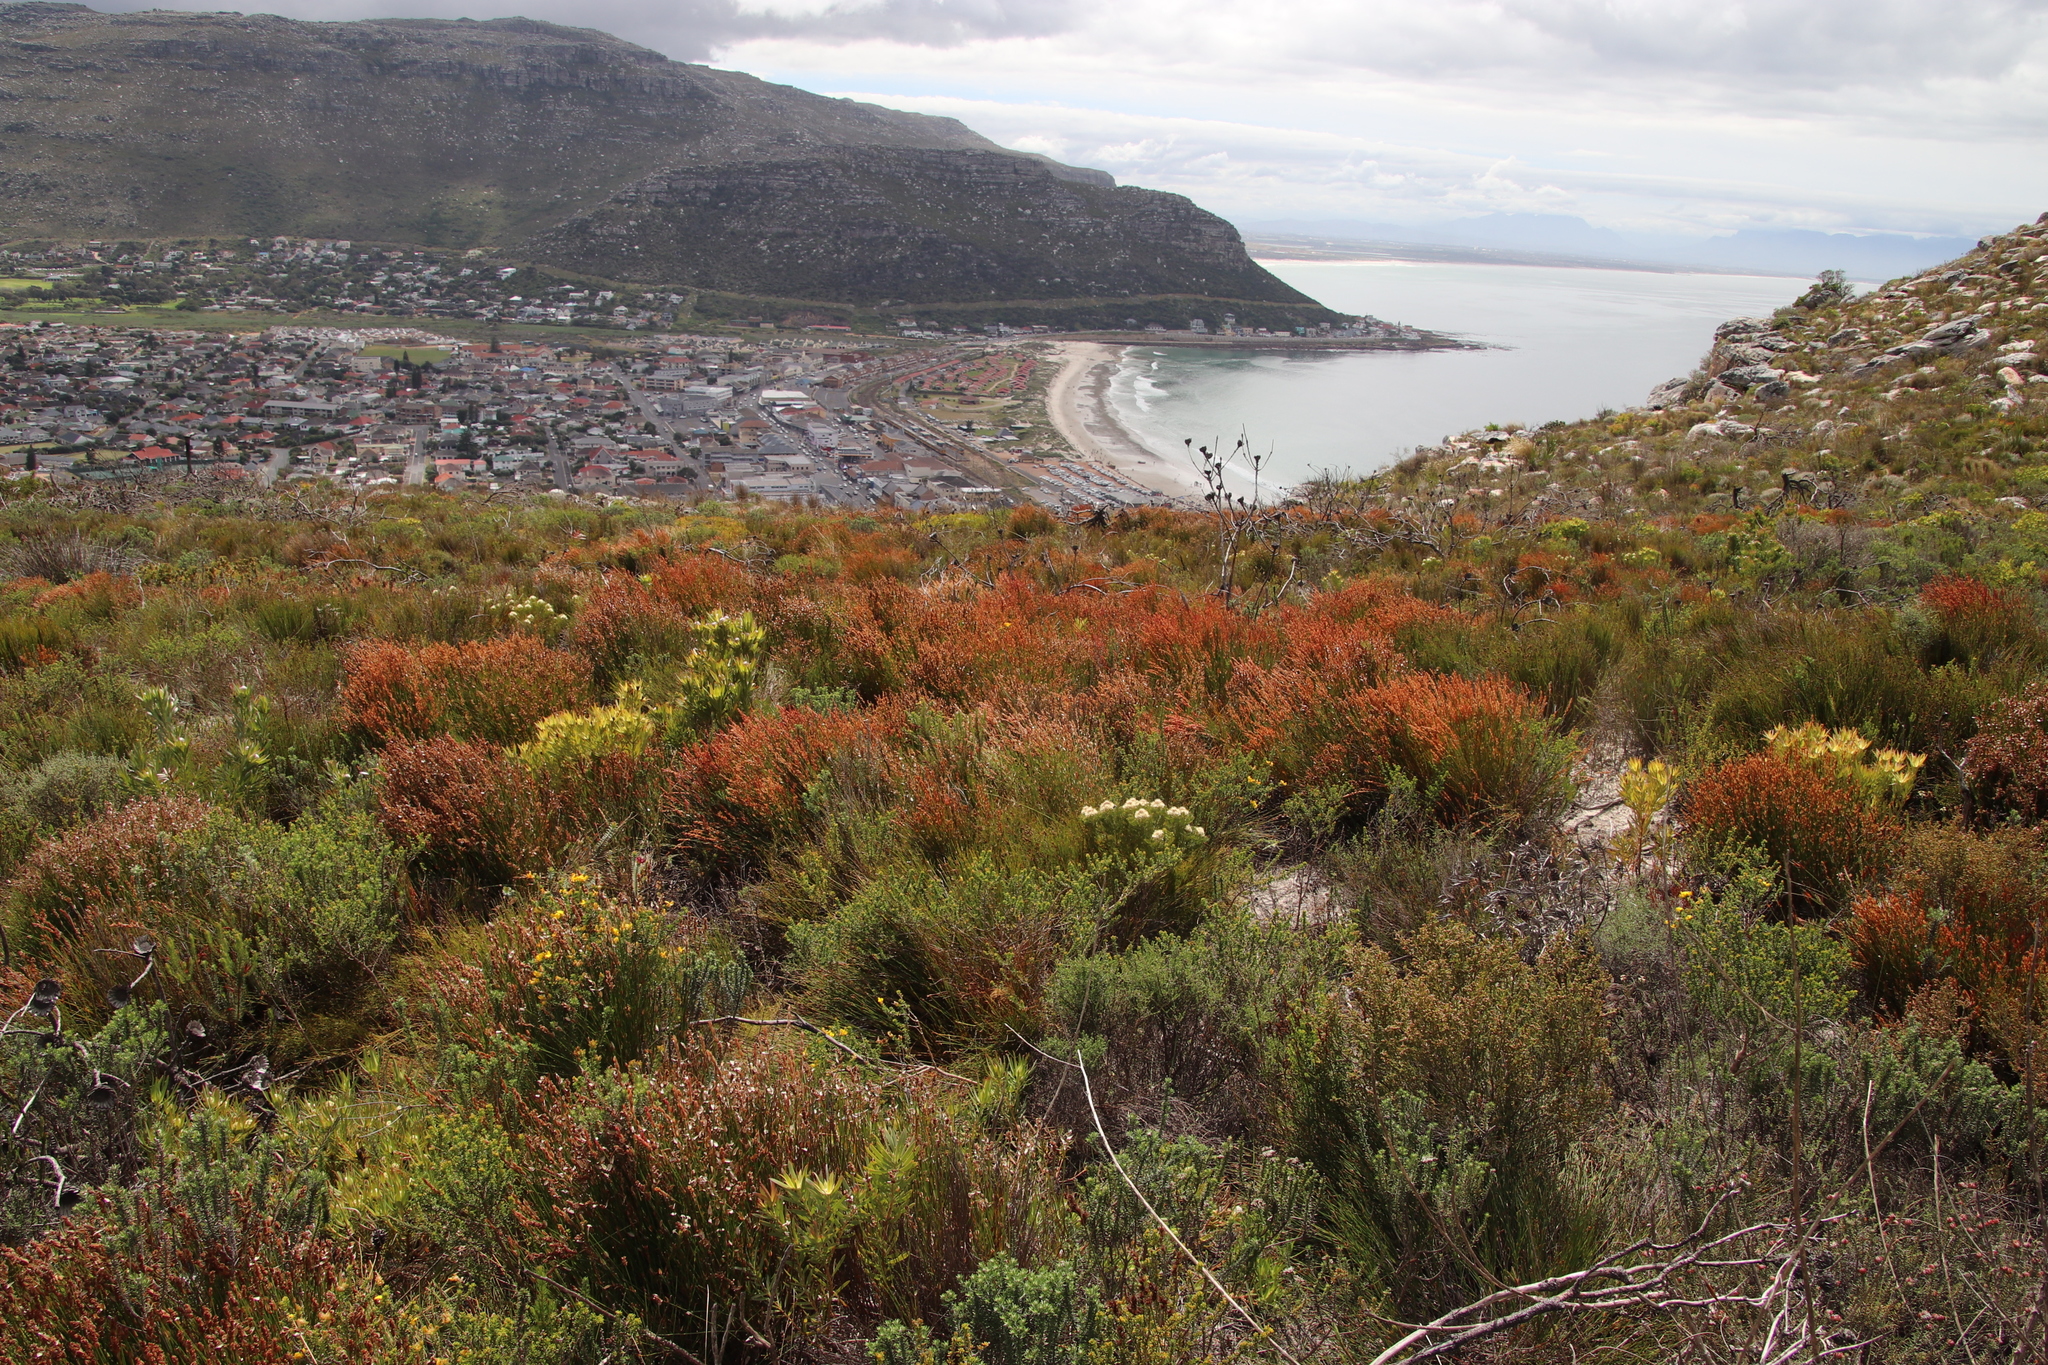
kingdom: Plantae
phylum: Tracheophyta
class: Liliopsida
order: Poales
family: Restionaceae
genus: Elegia
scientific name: Elegia stipularis
